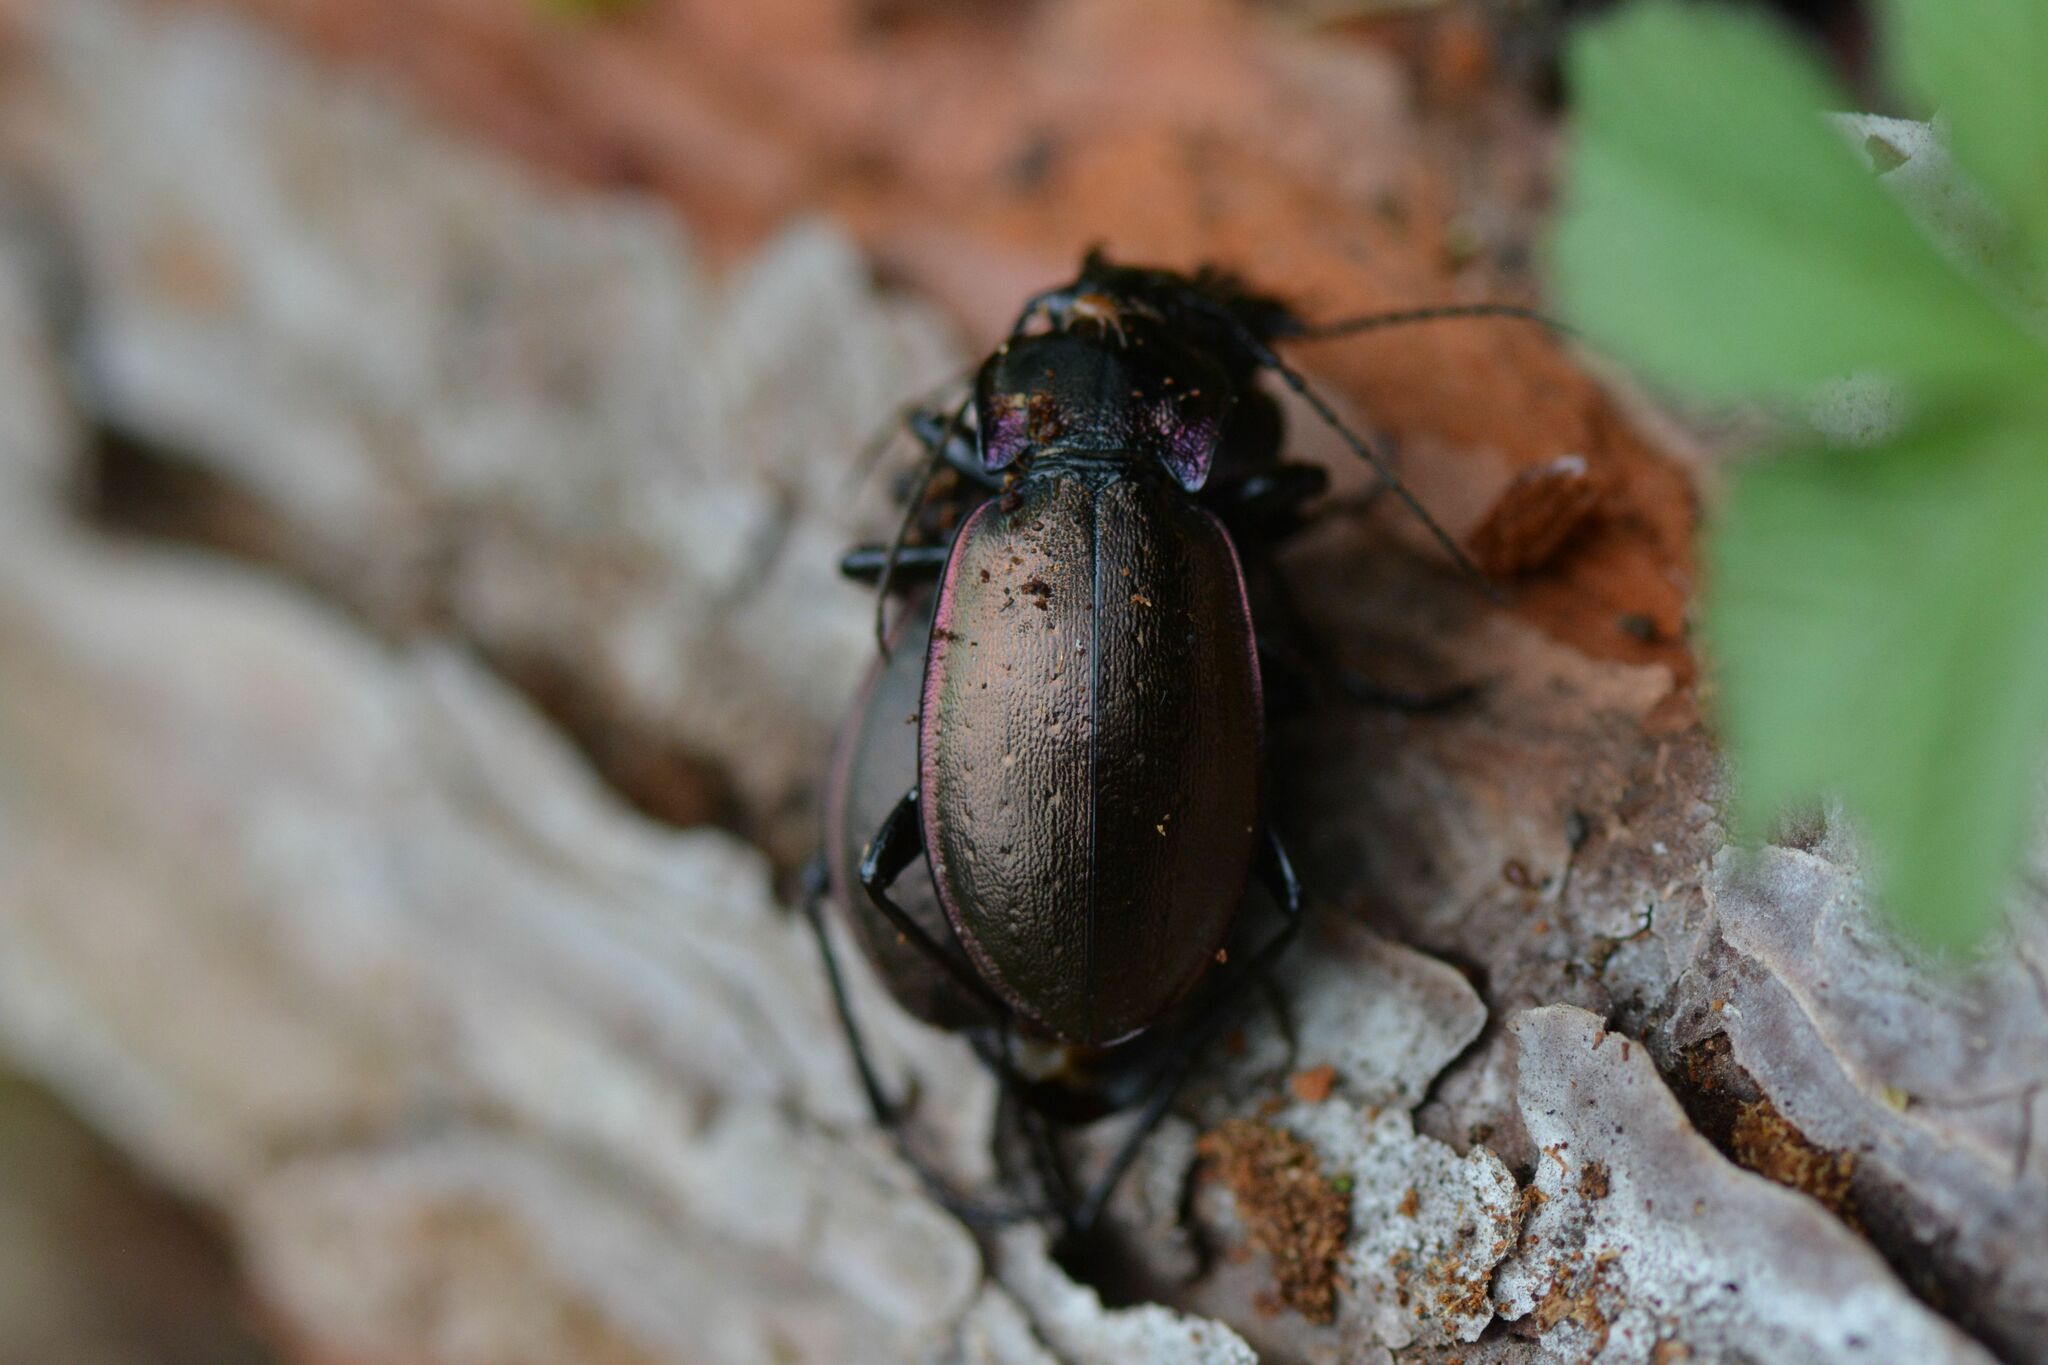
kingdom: Animalia
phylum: Arthropoda
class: Insecta
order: Coleoptera
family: Carabidae
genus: Carabus
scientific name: Carabus nemoralis
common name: European ground beetle
